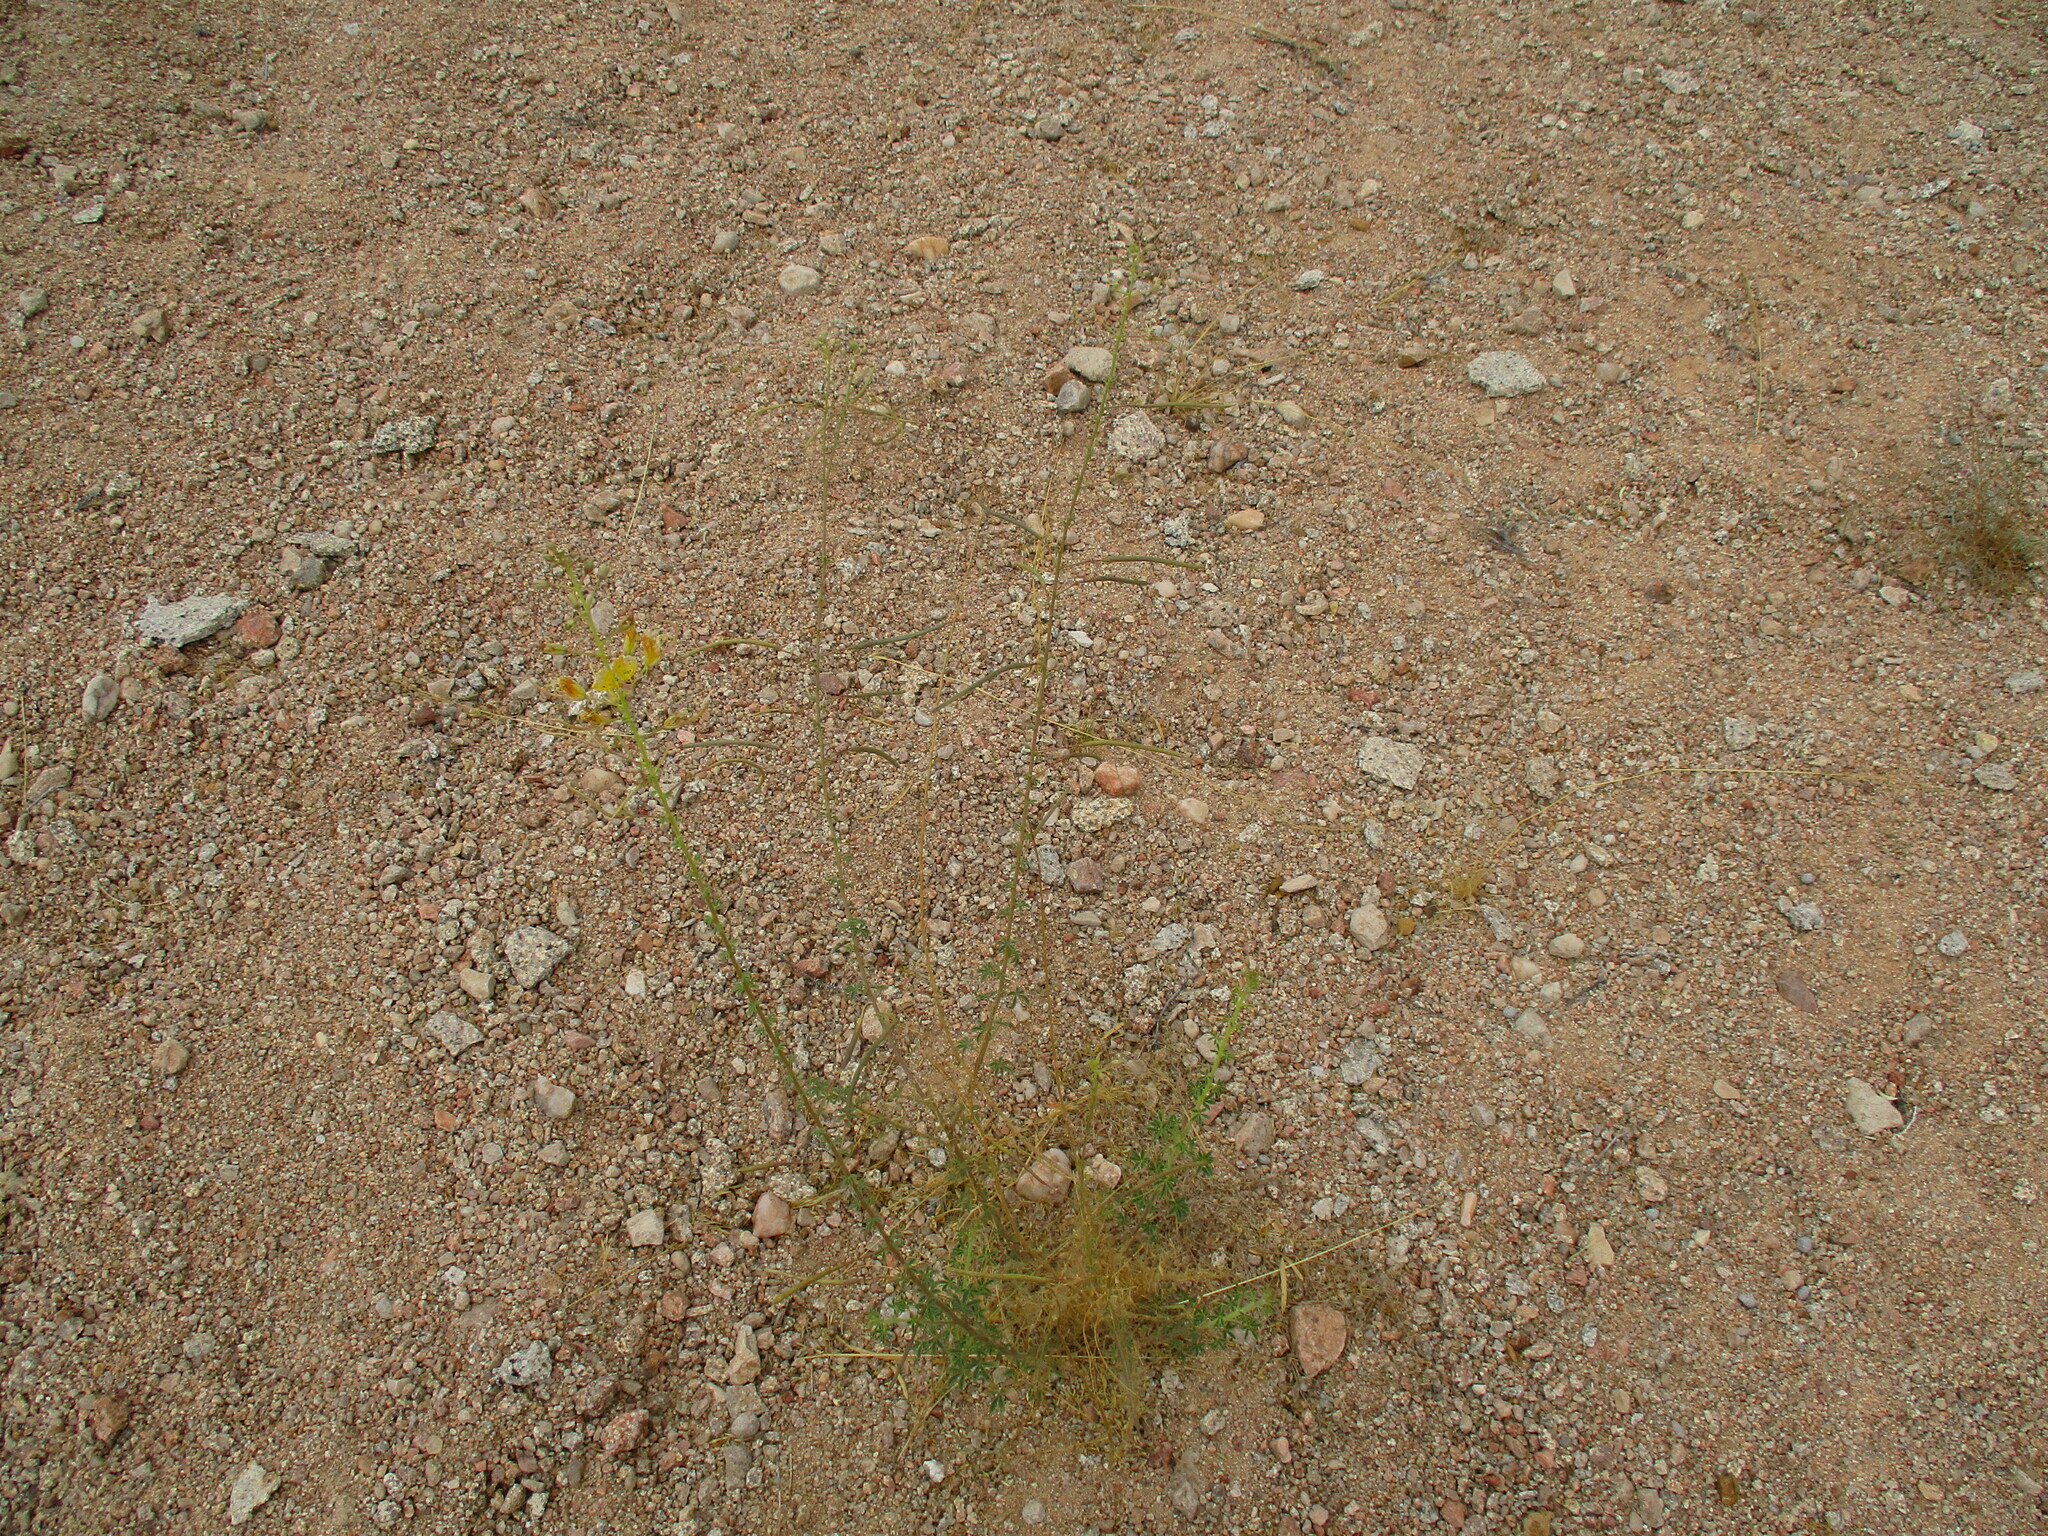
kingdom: Plantae
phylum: Tracheophyta
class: Magnoliopsida
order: Brassicales
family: Cleomaceae
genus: Cleome
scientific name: Cleome foliosa
